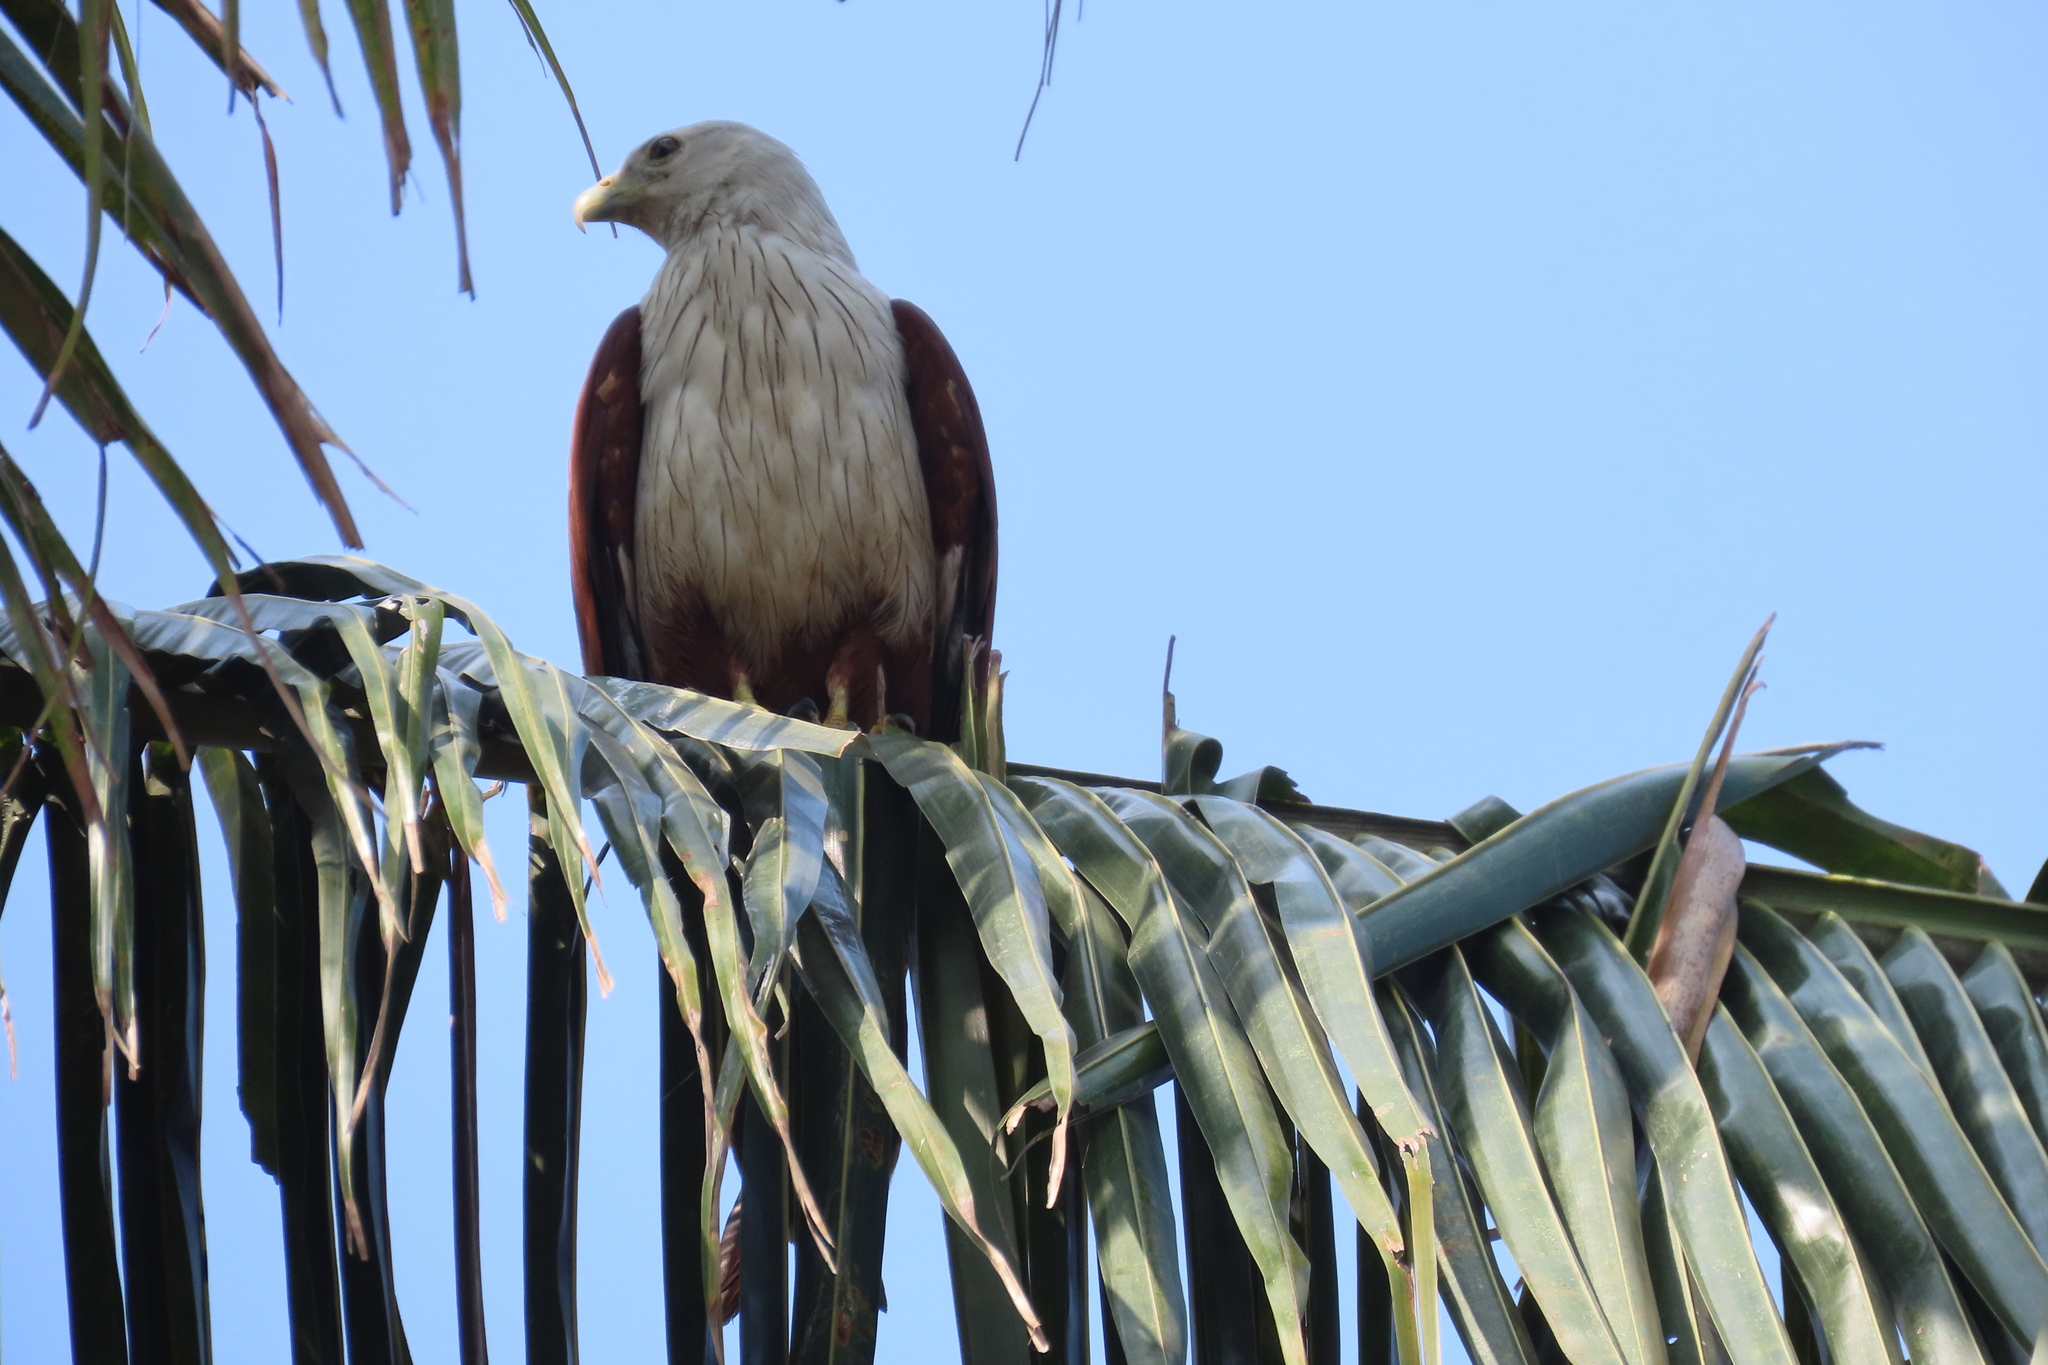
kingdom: Animalia
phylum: Chordata
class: Aves
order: Accipitriformes
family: Accipitridae
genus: Haliastur
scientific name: Haliastur indus
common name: Brahminy kite
